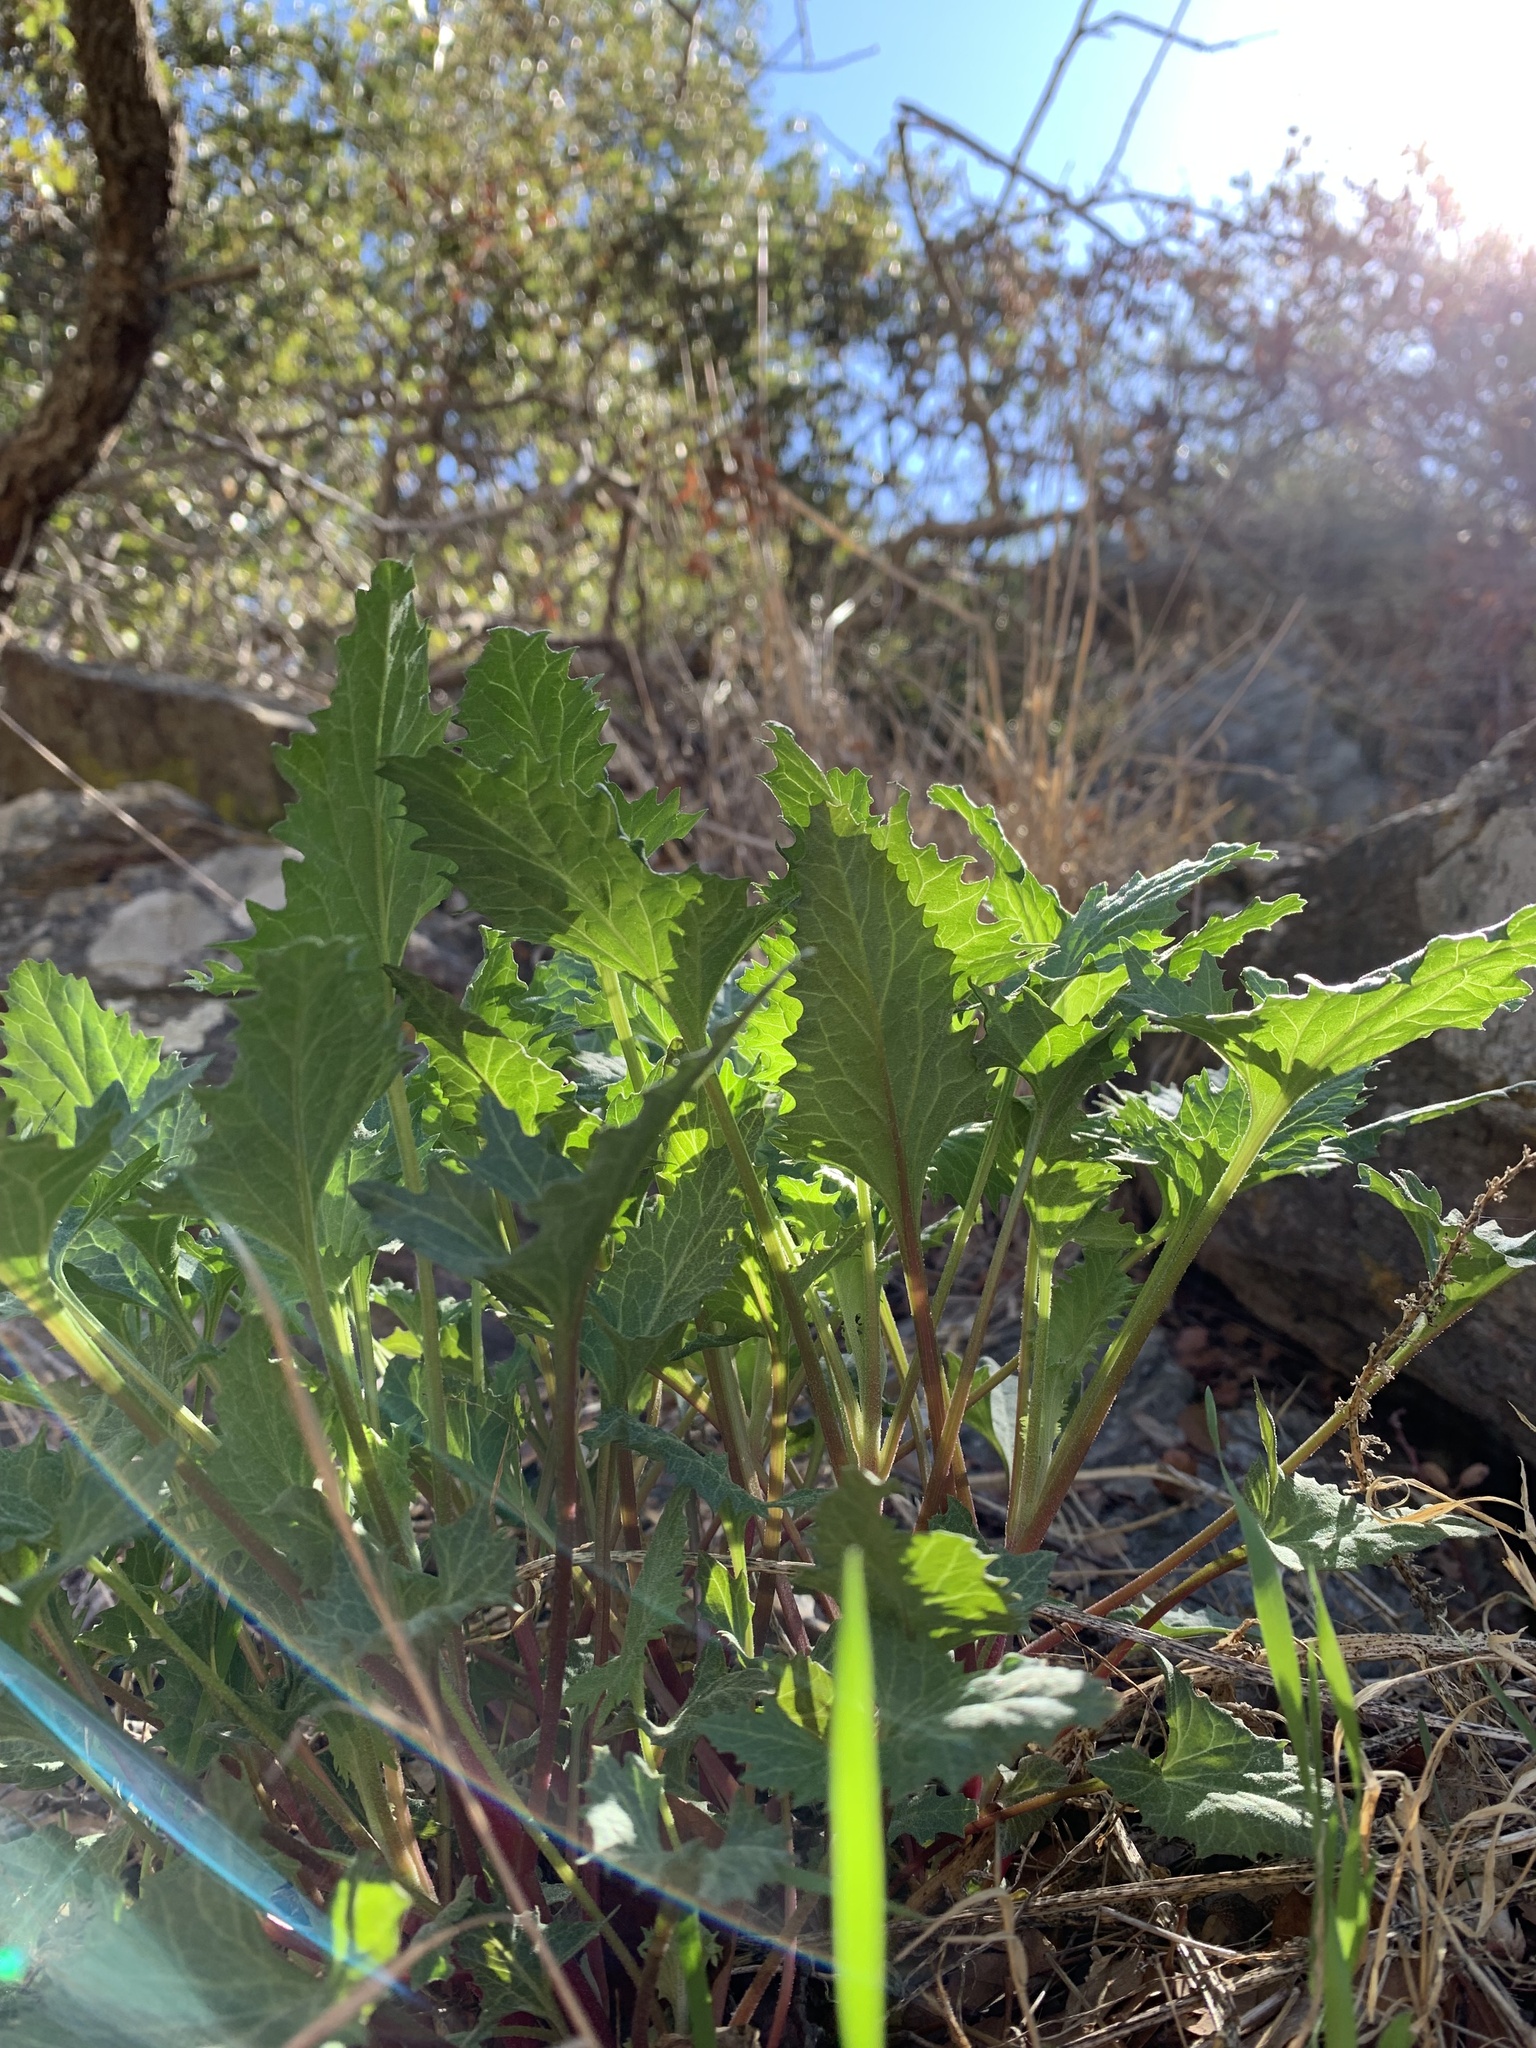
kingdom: Plantae
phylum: Tracheophyta
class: Magnoliopsida
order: Caryophyllales
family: Amaranthaceae
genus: Blitum
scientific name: Blitum californicum
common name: California goosefoot
